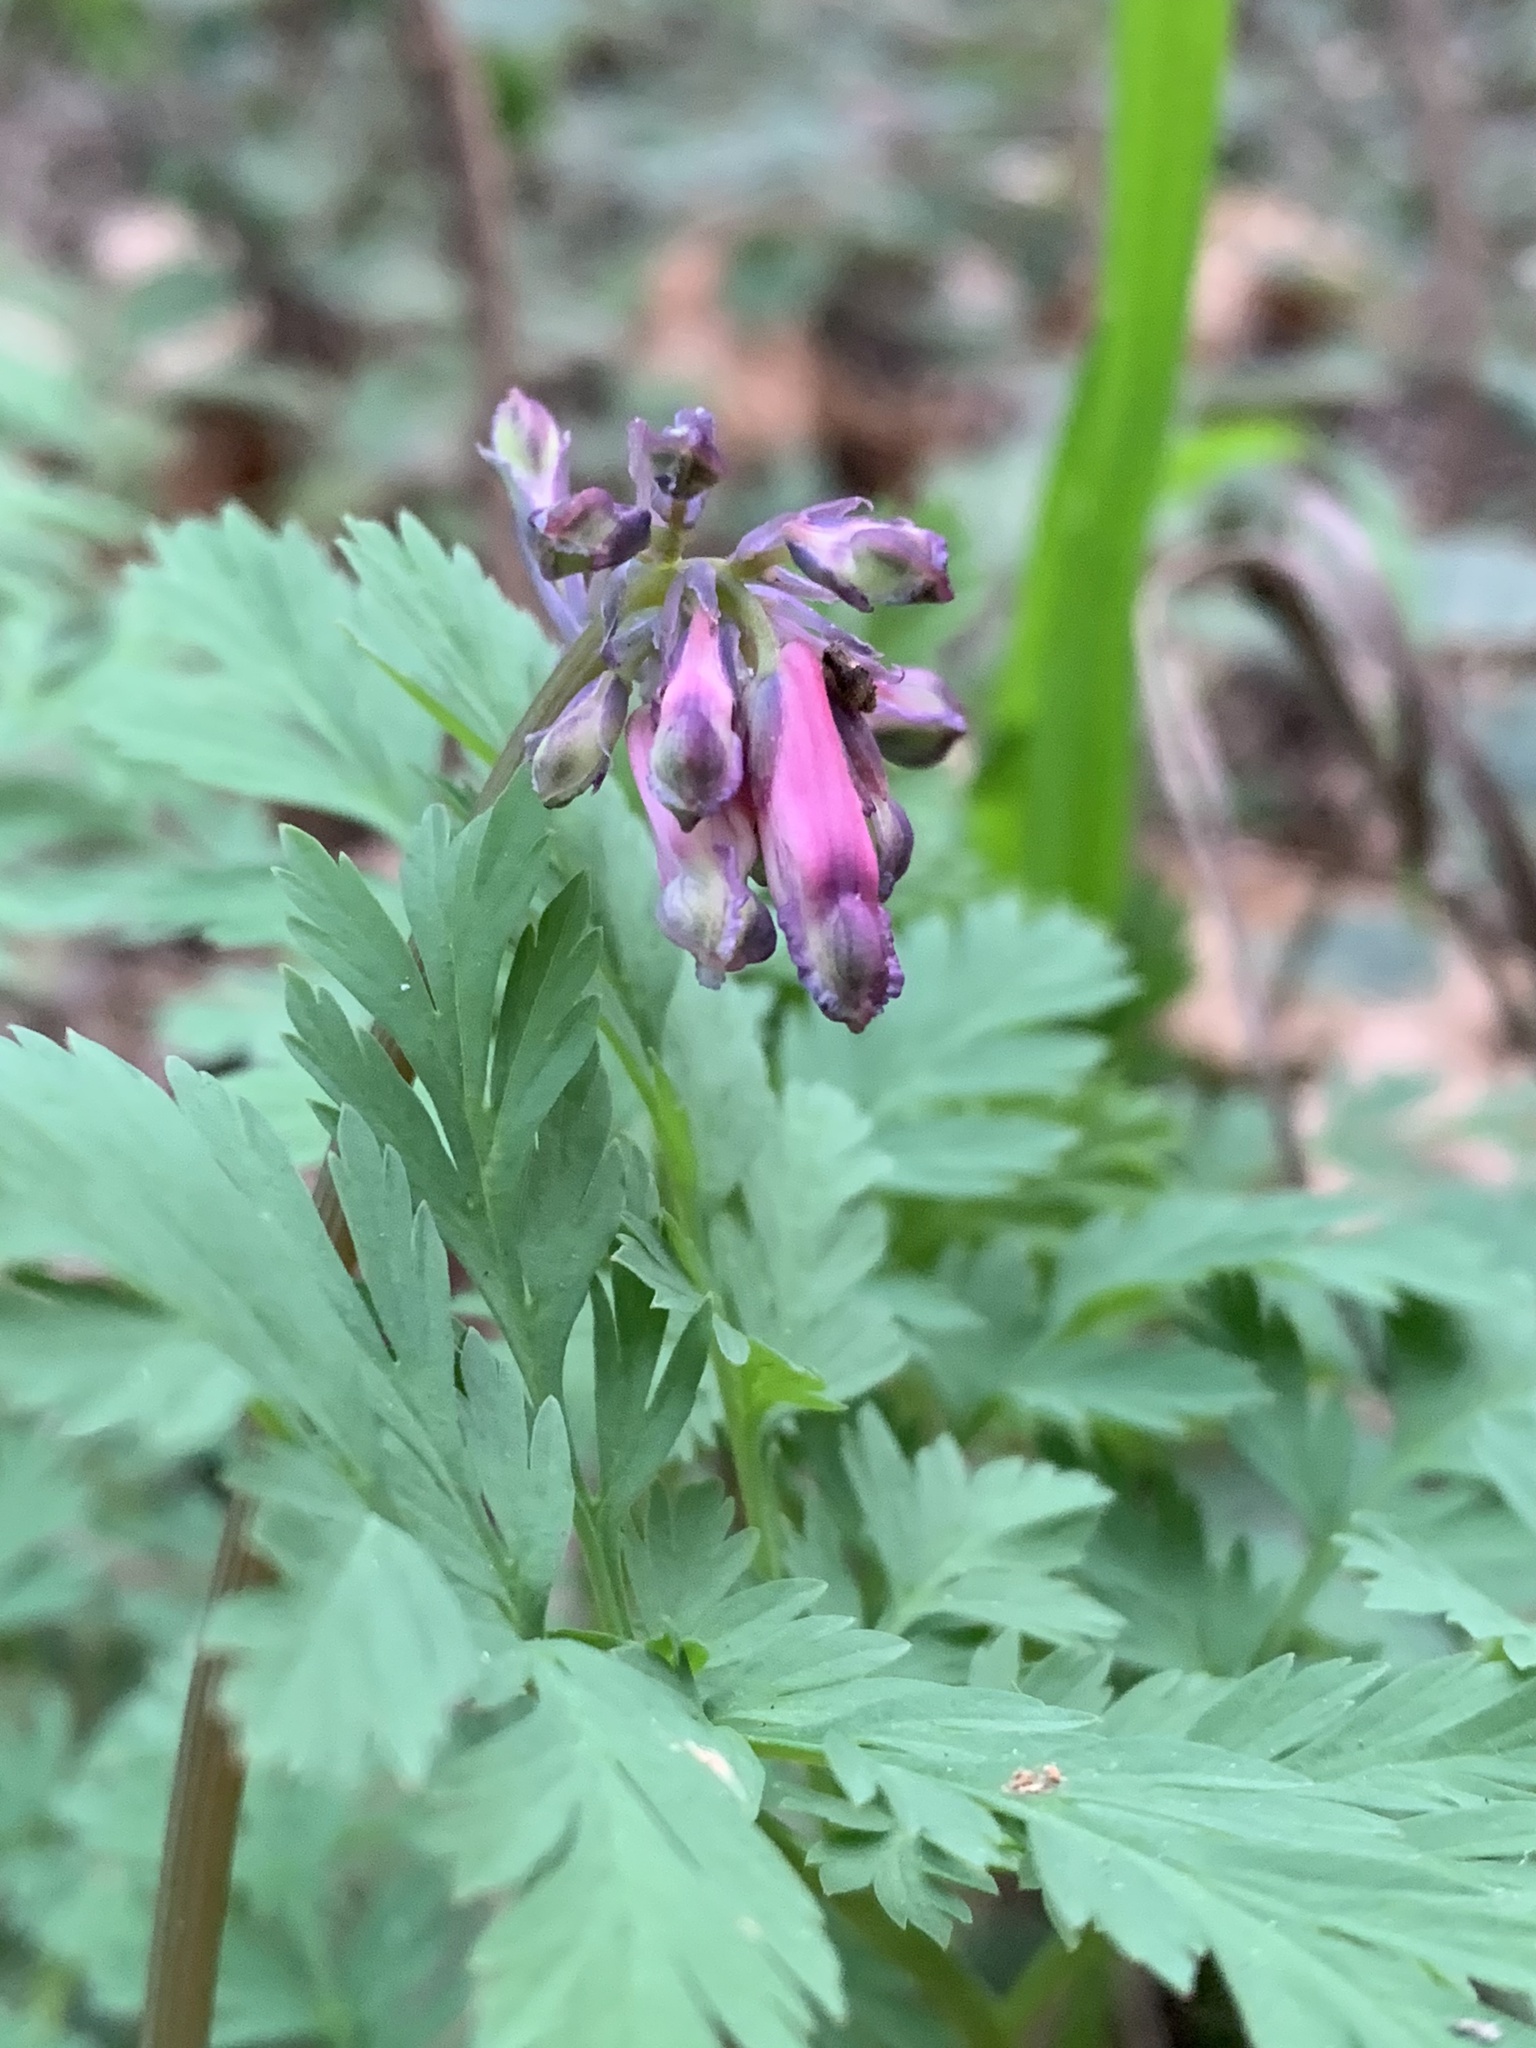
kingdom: Plantae
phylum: Tracheophyta
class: Magnoliopsida
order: Ranunculales
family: Papaveraceae
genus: Dicentra
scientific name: Dicentra formosa
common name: Bleeding-heart
